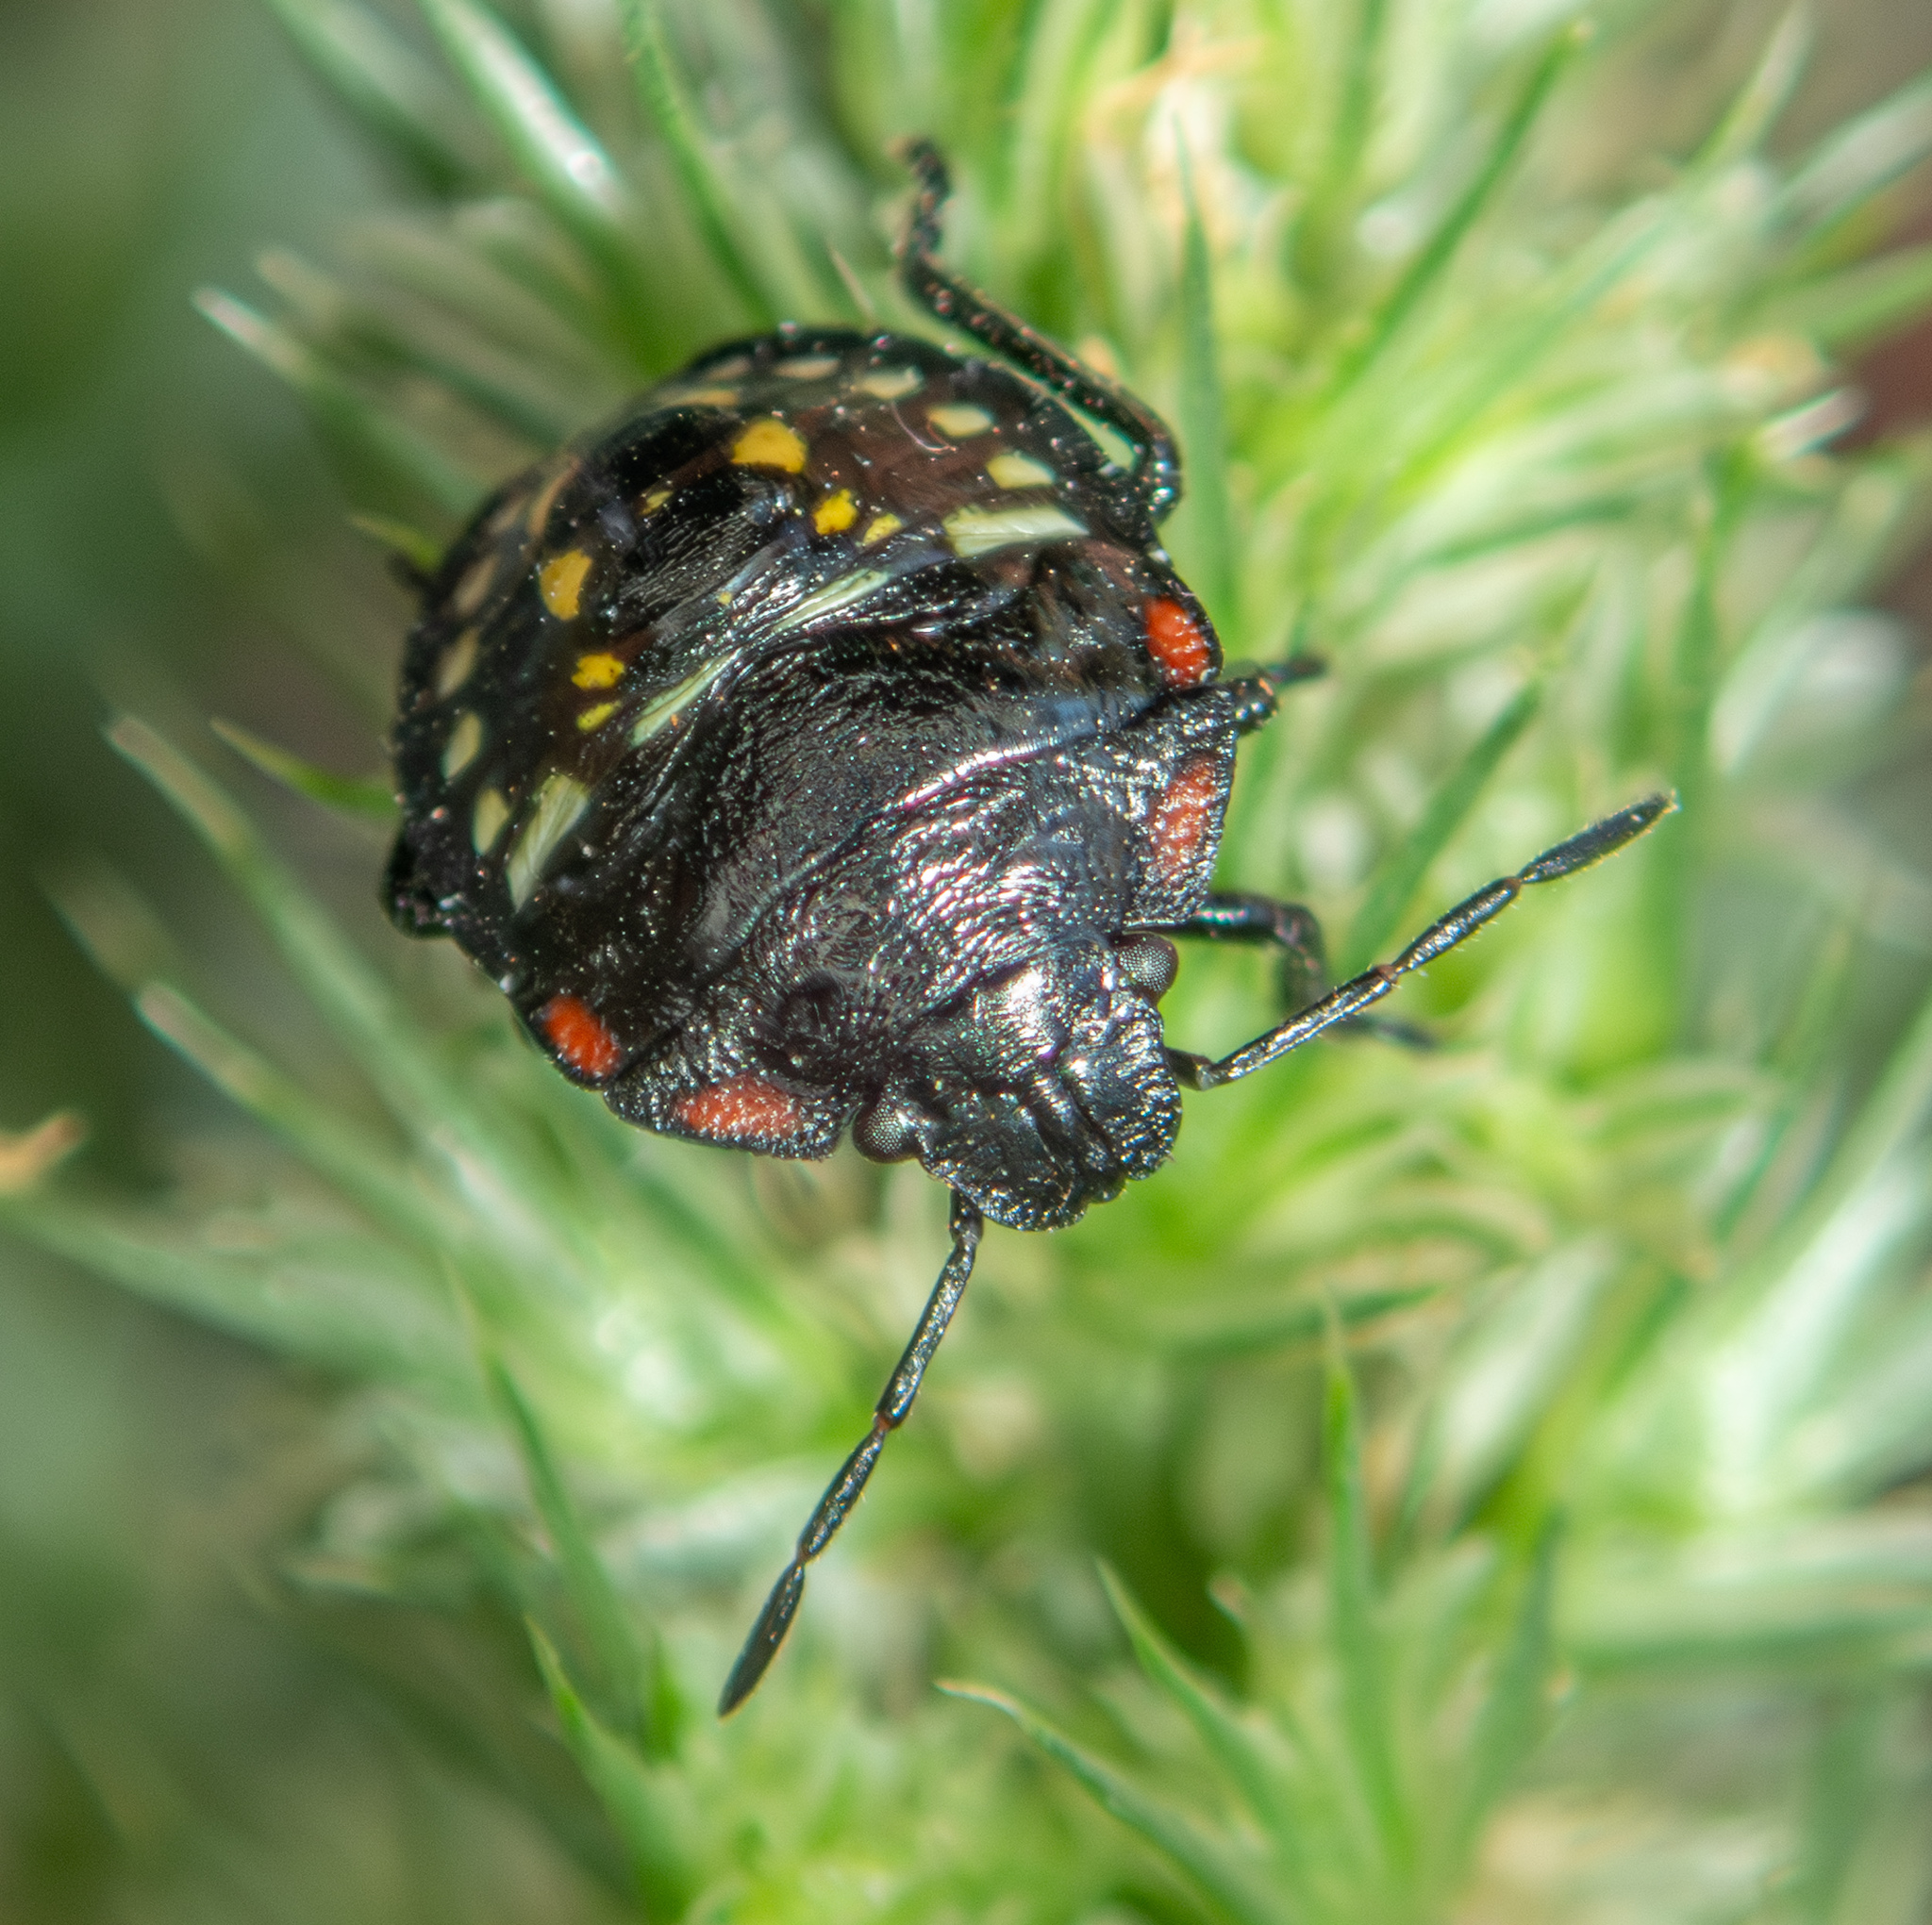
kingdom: Animalia
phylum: Arthropoda
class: Insecta
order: Hemiptera
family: Pentatomidae
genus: Nezara
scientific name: Nezara viridula
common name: Southern green stink bug
